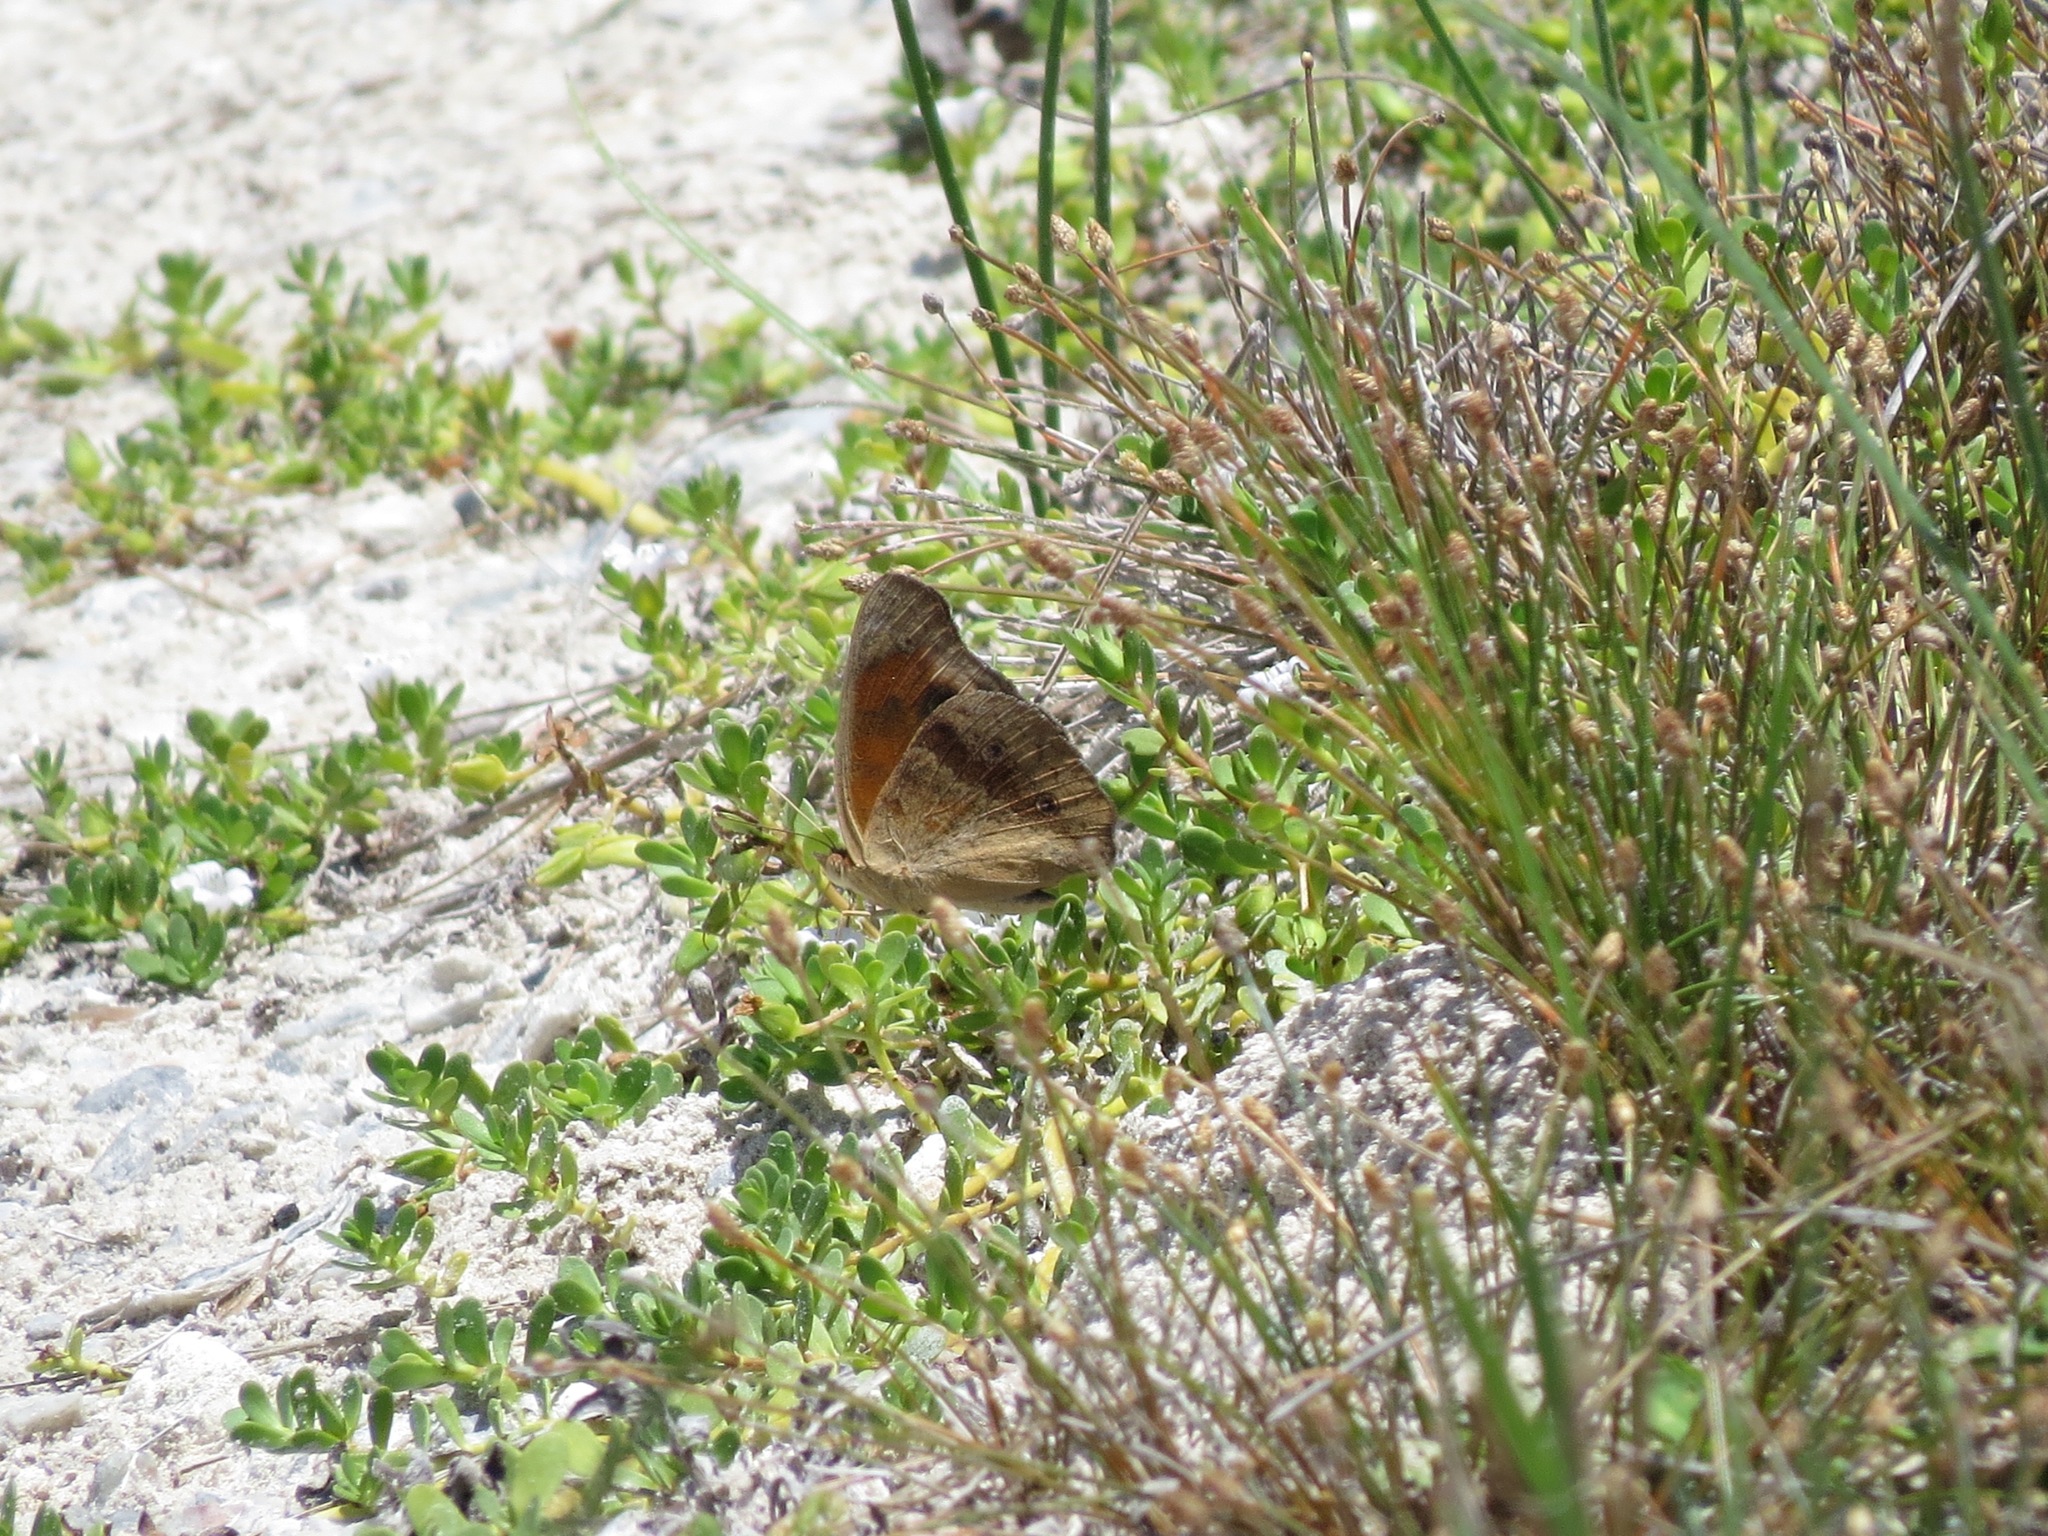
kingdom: Animalia
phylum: Arthropoda
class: Insecta
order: Lepidoptera
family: Nymphalidae
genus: Junonia
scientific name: Junonia stemosa
